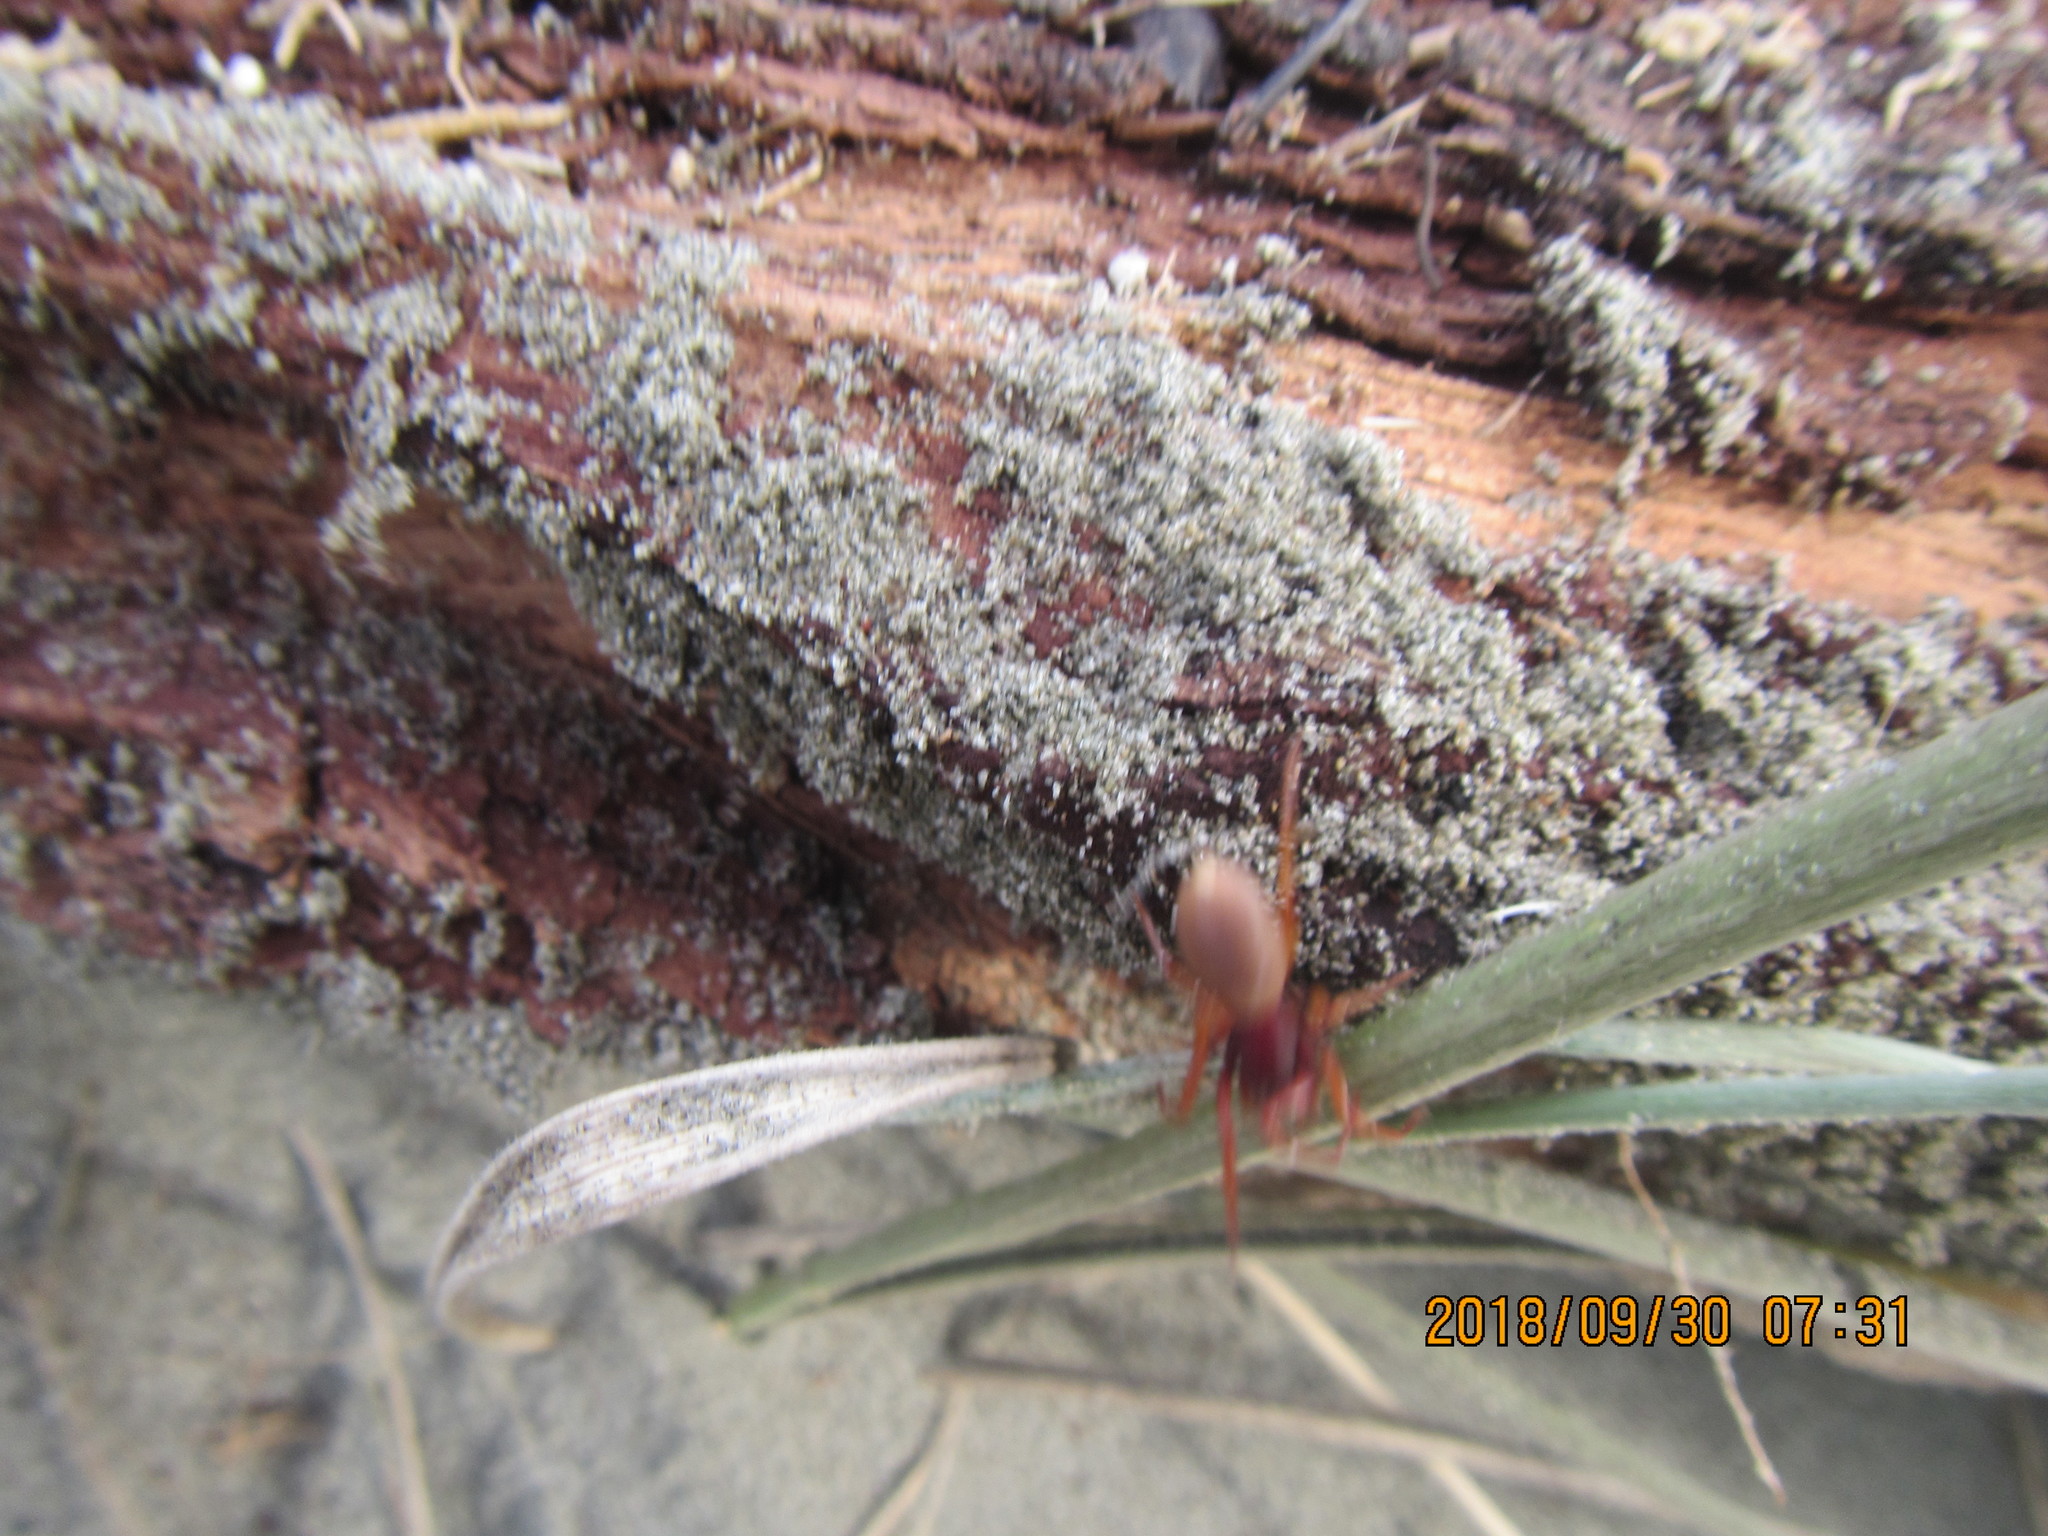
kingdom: Animalia
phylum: Arthropoda
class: Arachnida
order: Araneae
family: Dysderidae
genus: Dysdera
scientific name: Dysdera crocata
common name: Woodlouse spider
